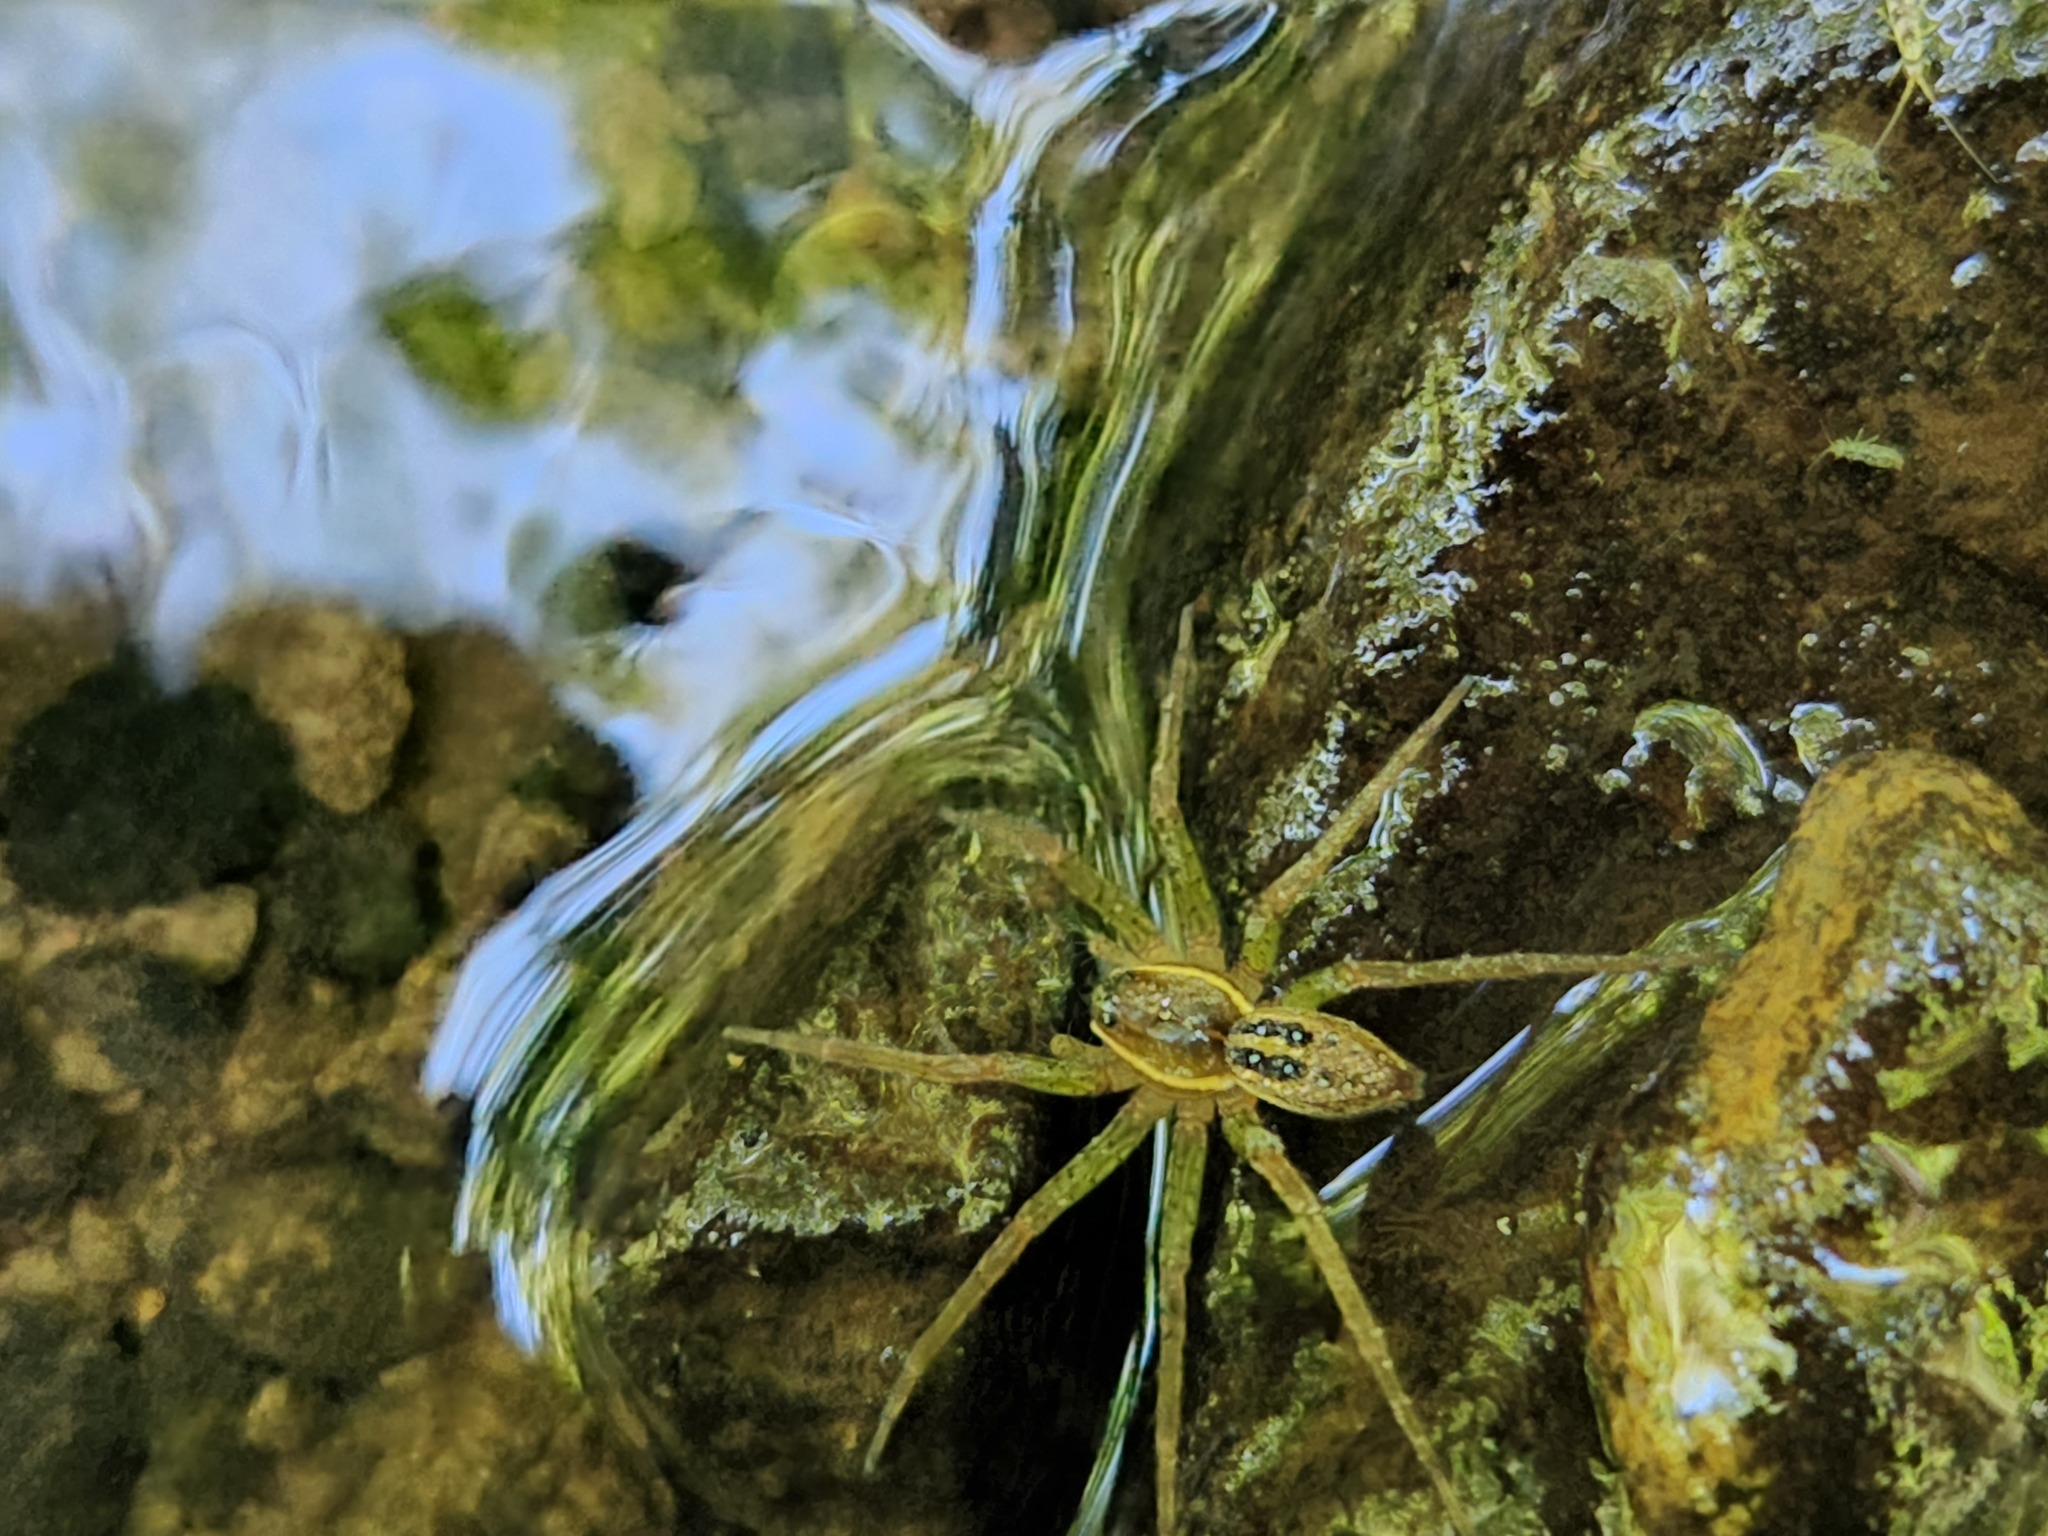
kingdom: Animalia
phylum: Arthropoda
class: Arachnida
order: Araneae
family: Pisauridae
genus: Dolomedes
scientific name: Dolomedes triton
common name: Six-spotted fishing spider
